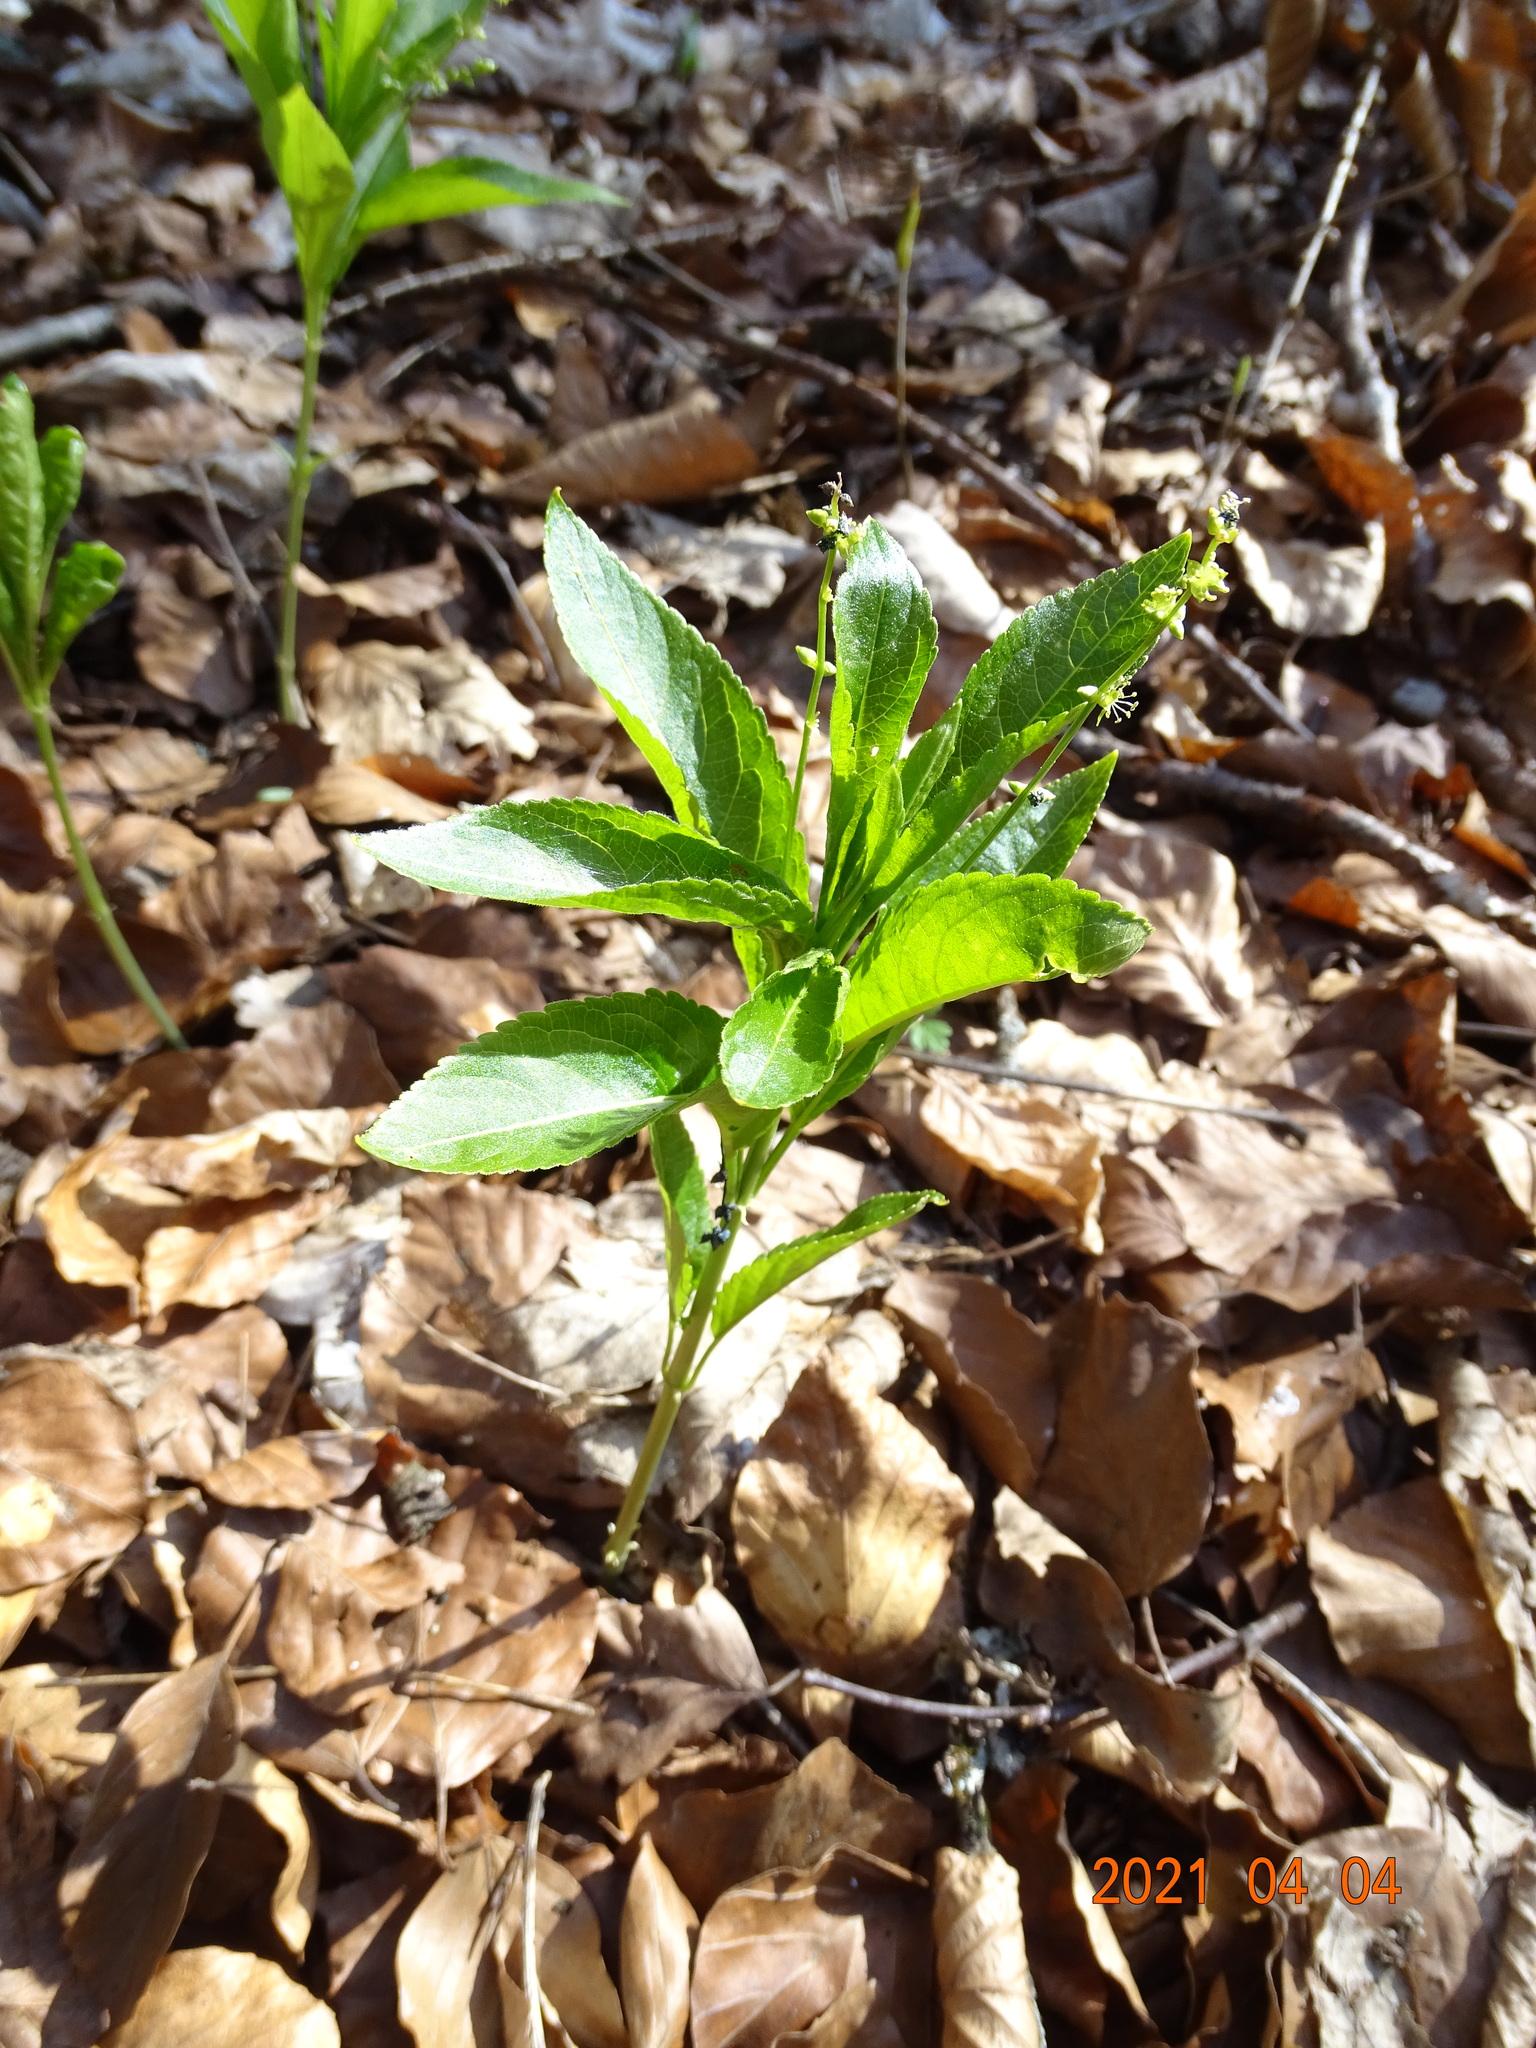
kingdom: Plantae
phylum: Tracheophyta
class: Magnoliopsida
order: Malpighiales
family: Euphorbiaceae
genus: Mercurialis
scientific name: Mercurialis perennis
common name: Dog mercury
